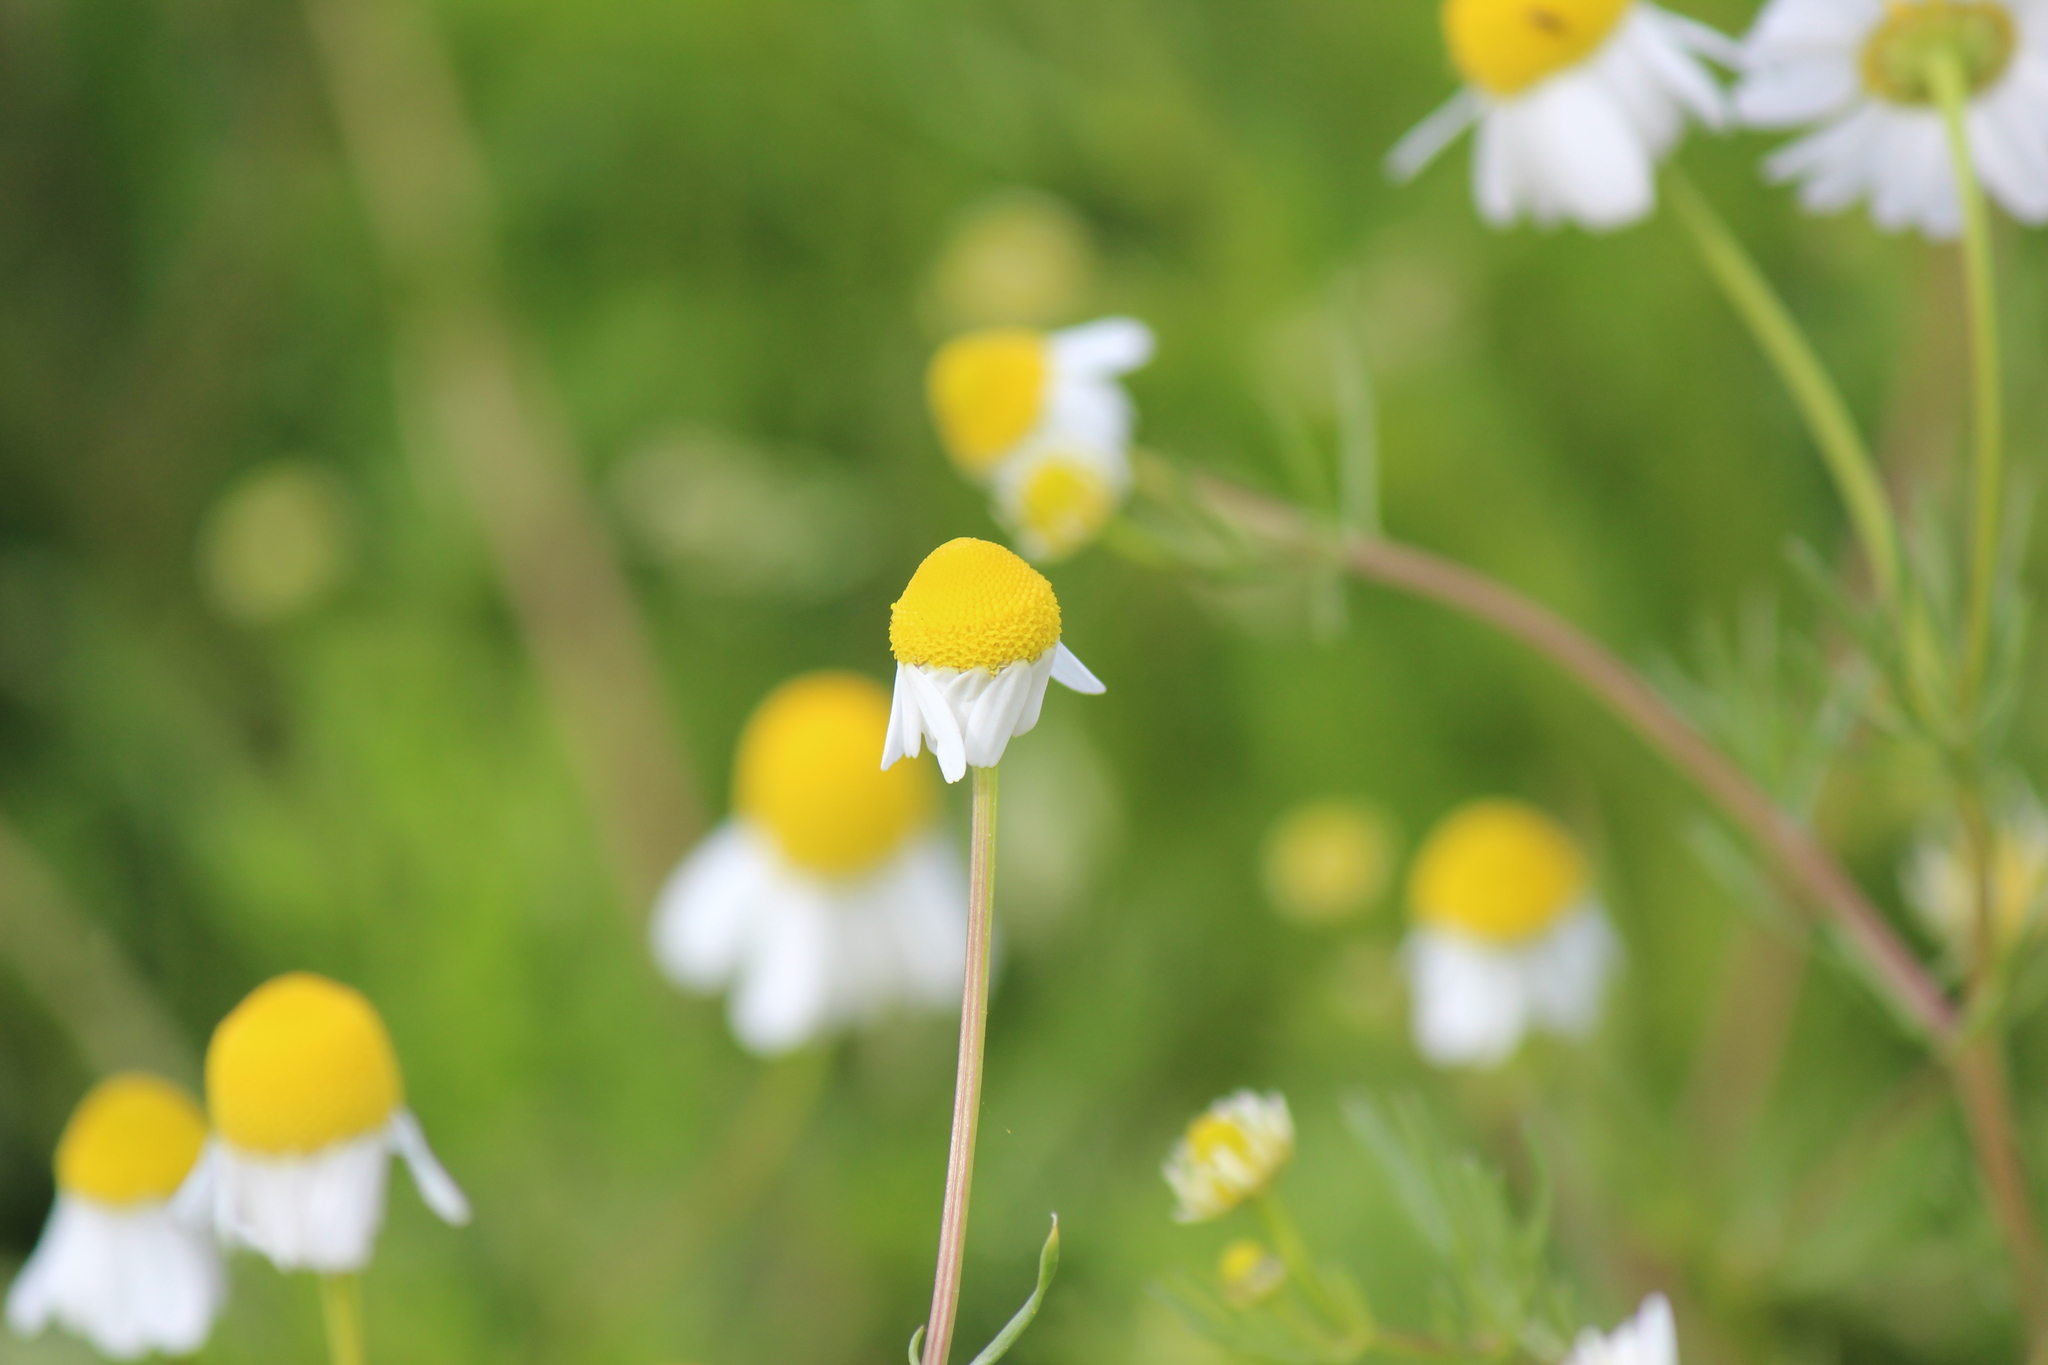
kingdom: Plantae
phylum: Tracheophyta
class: Magnoliopsida
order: Asterales
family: Asteraceae
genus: Matricaria
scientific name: Matricaria chamomilla
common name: Scented mayweed
